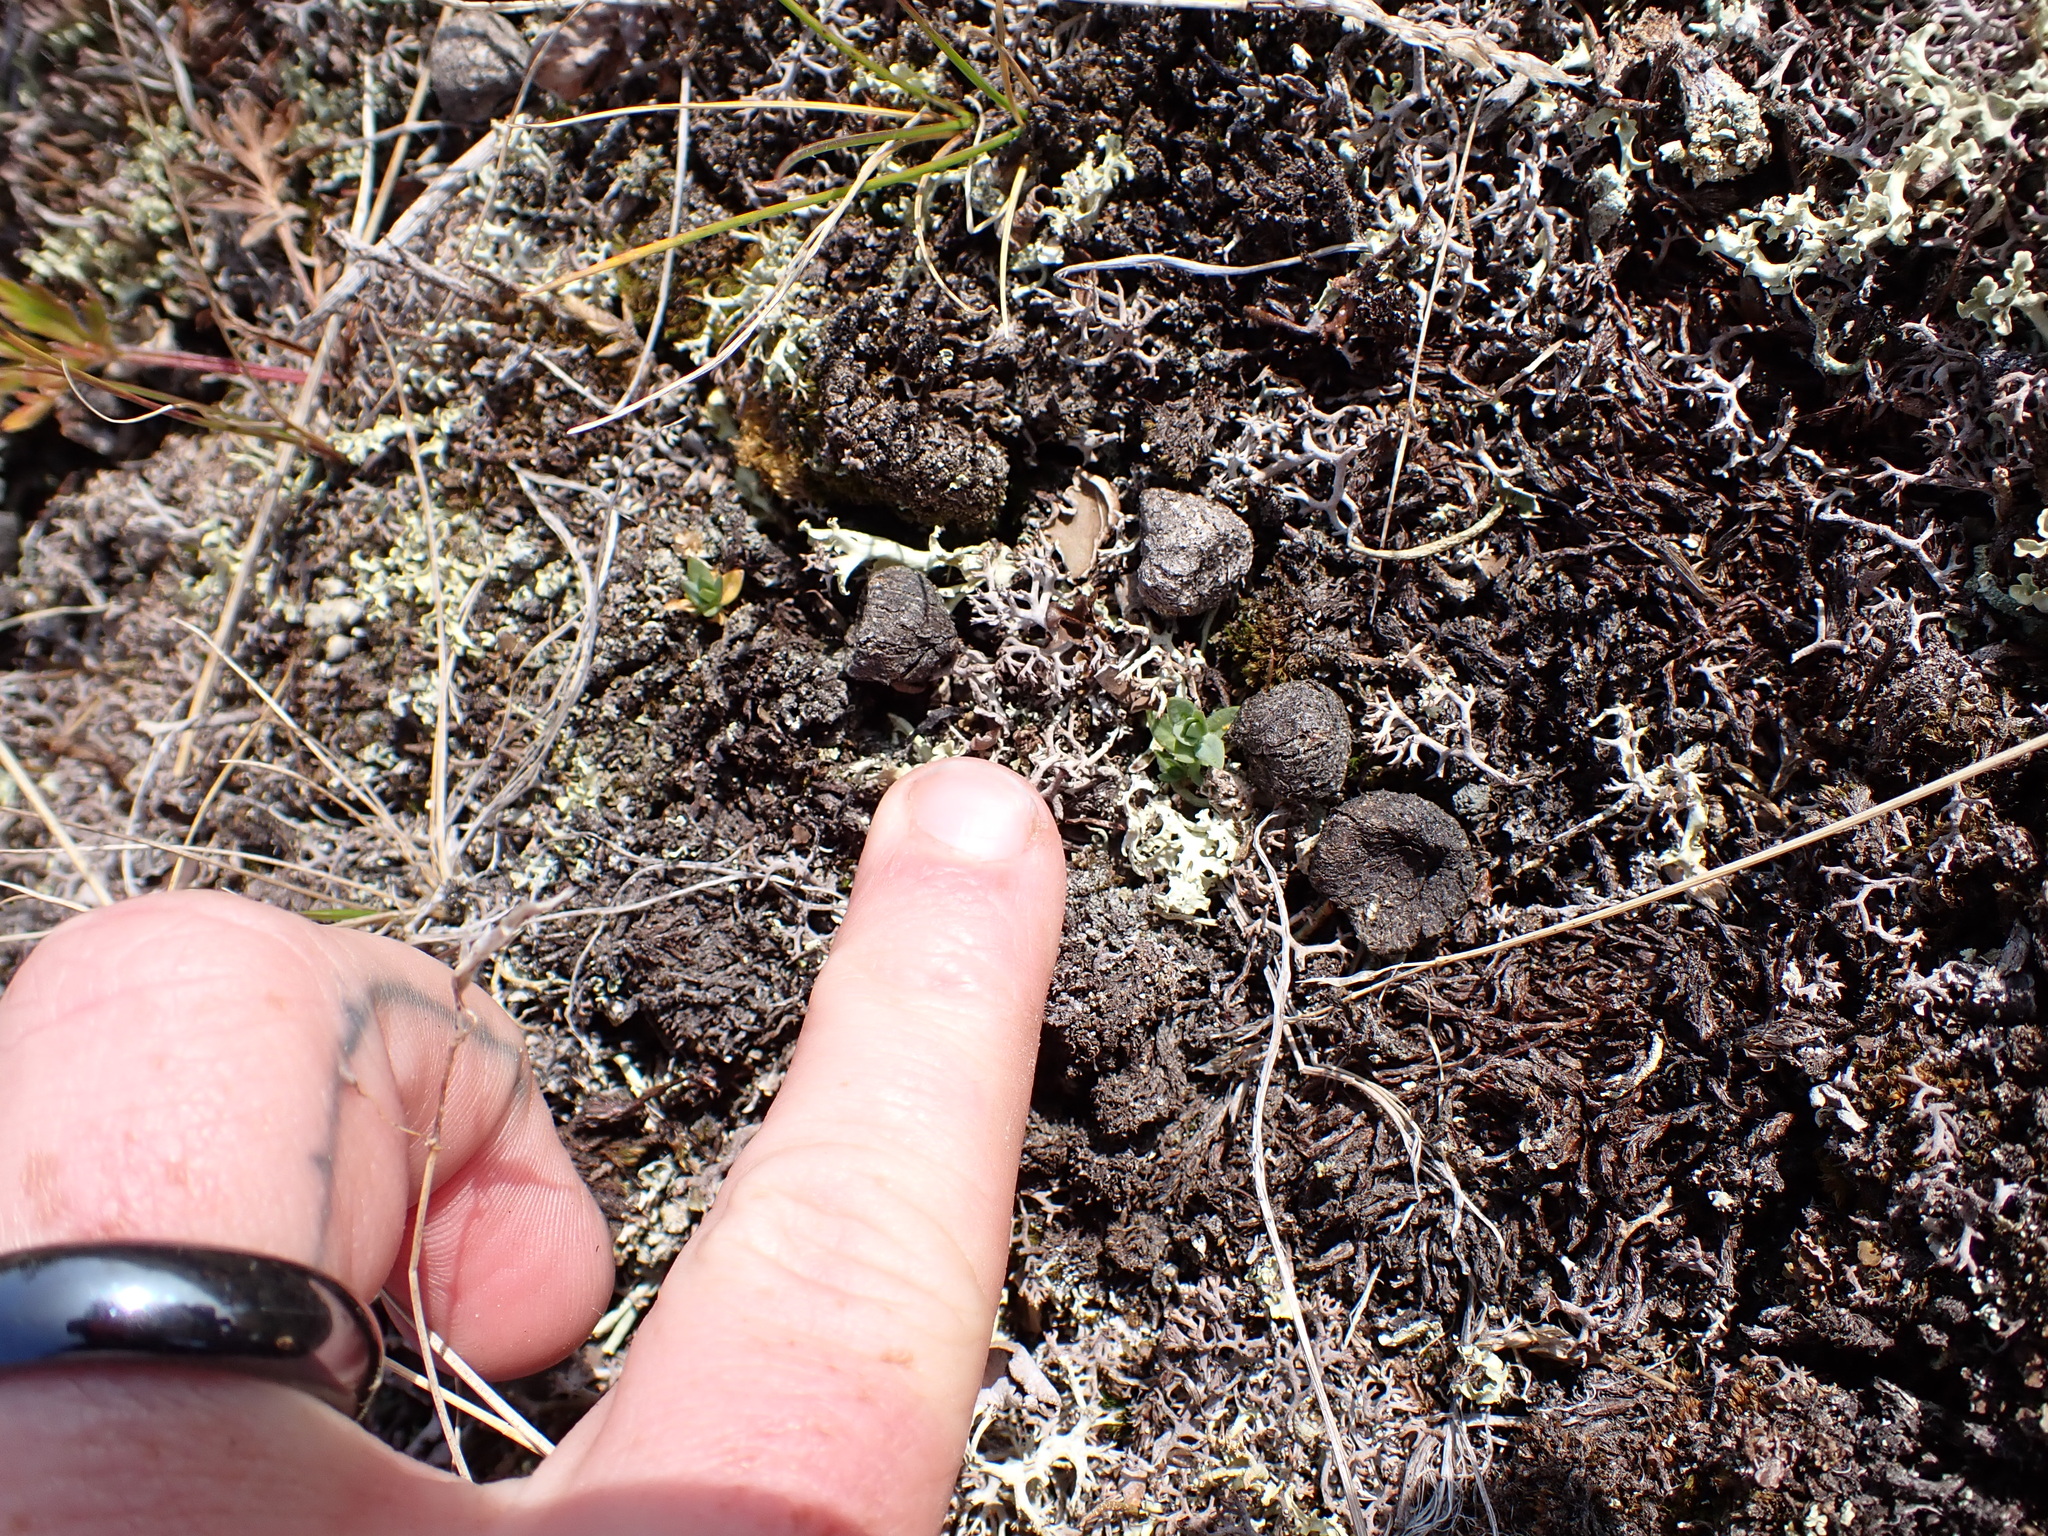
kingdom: Animalia
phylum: Chordata
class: Mammalia
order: Artiodactyla
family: Bovidae
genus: Ovis
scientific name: Ovis dalli
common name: Dall's sheep
